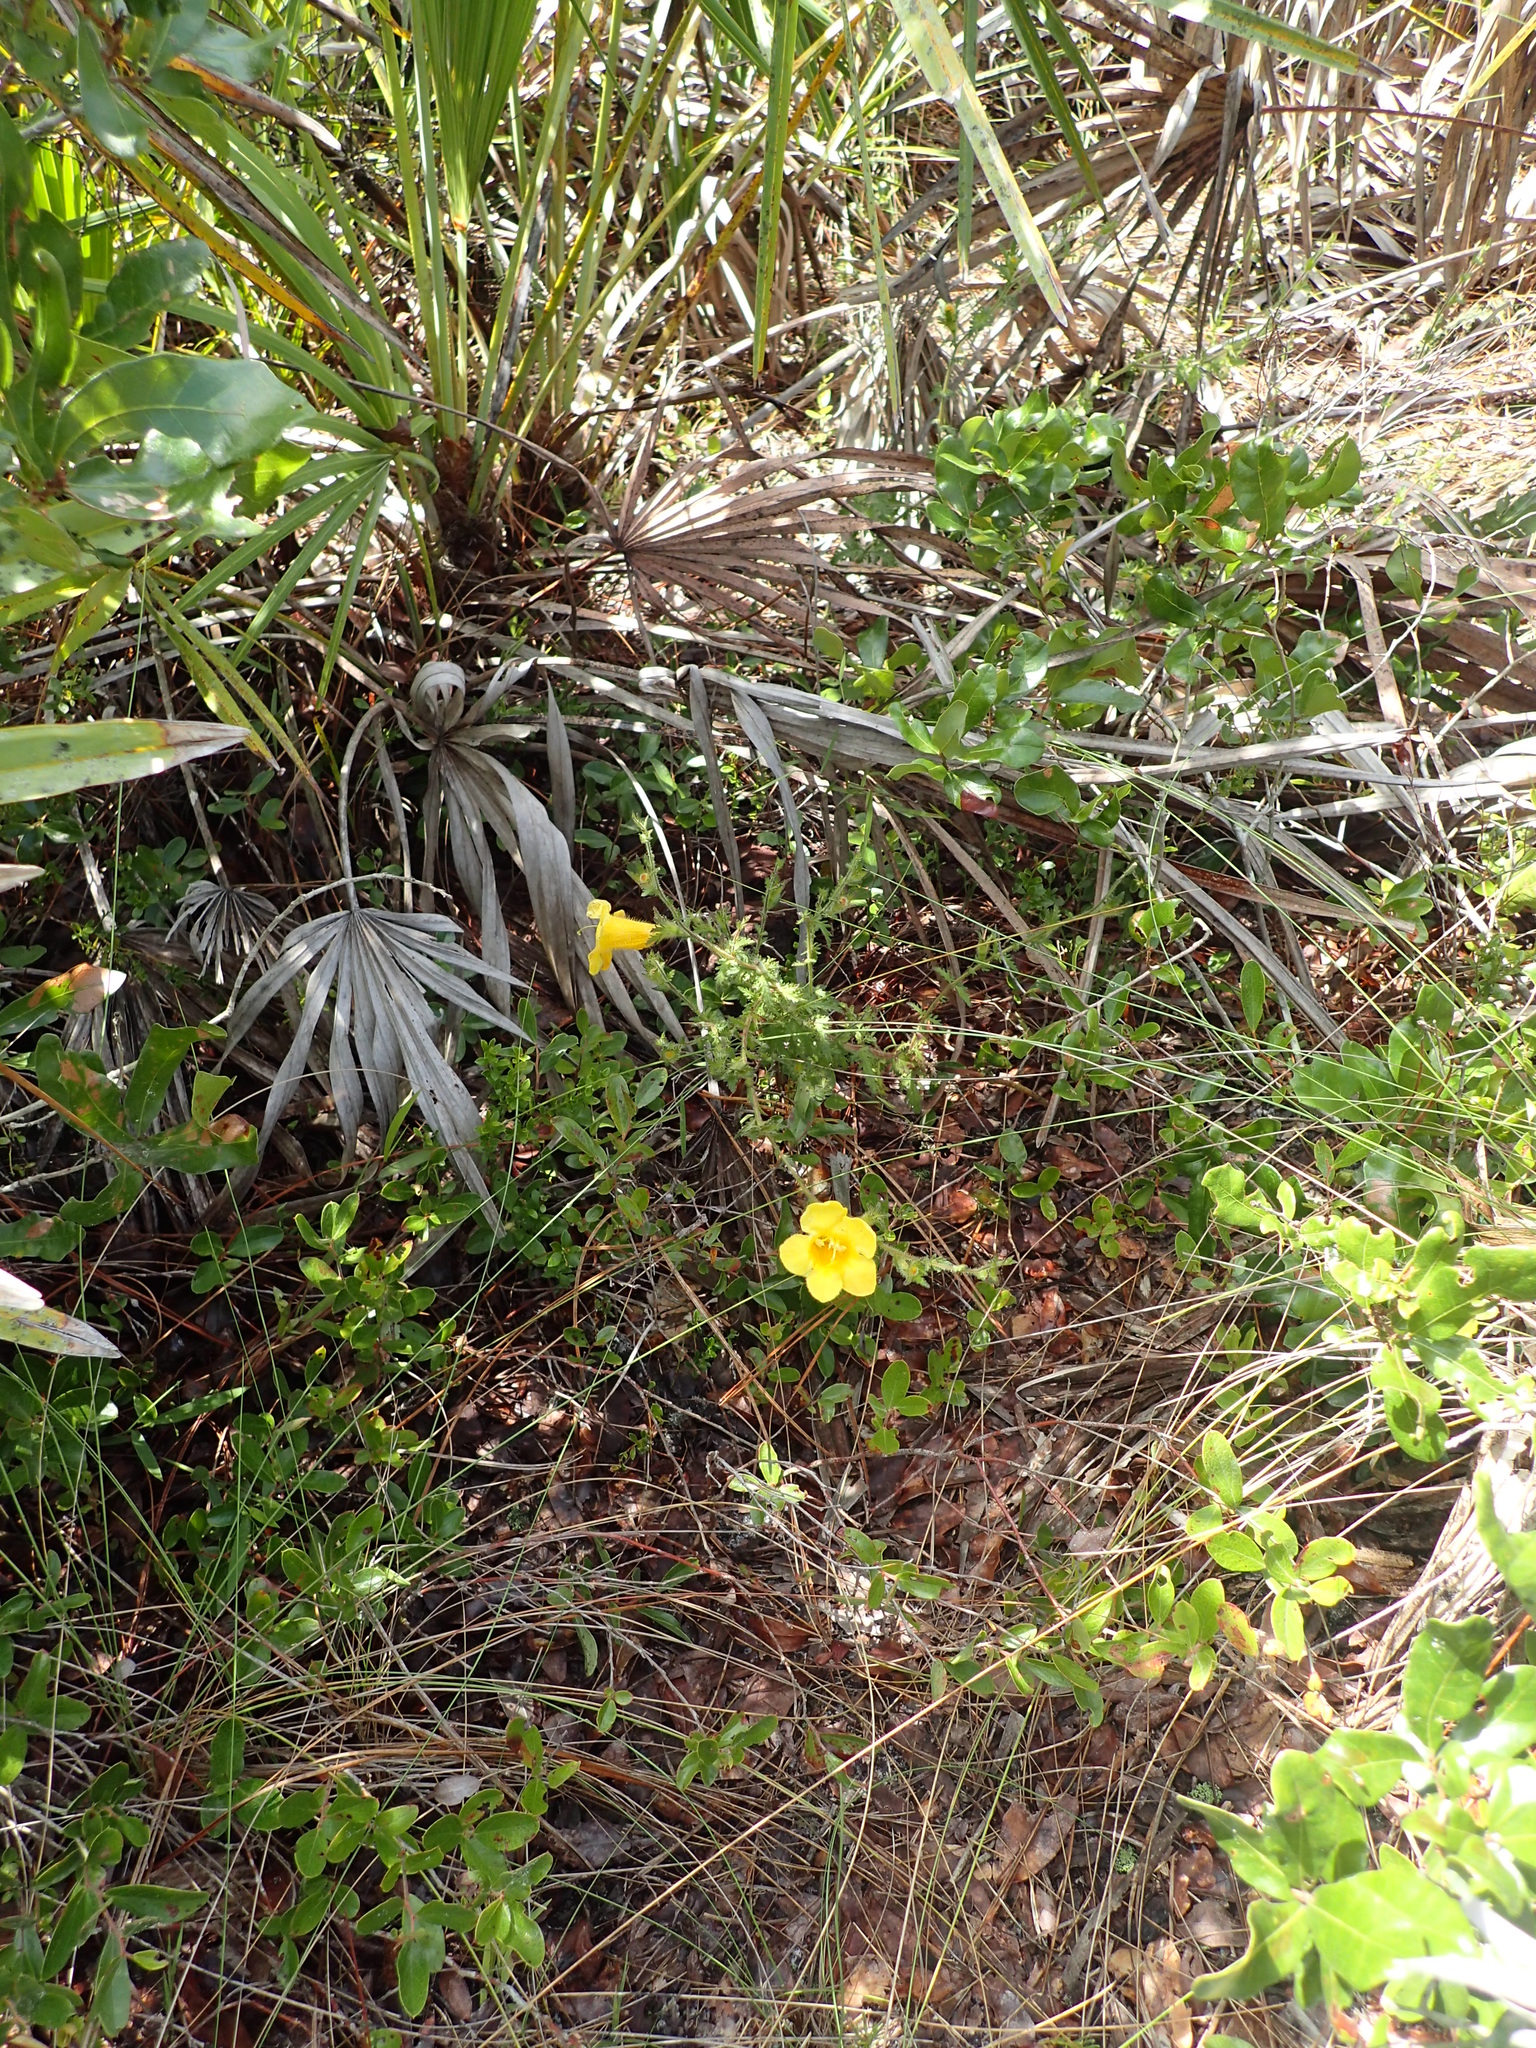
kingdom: Plantae
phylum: Tracheophyta
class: Magnoliopsida
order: Lamiales
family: Orobanchaceae
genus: Aureolaria
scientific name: Aureolaria pectinata
